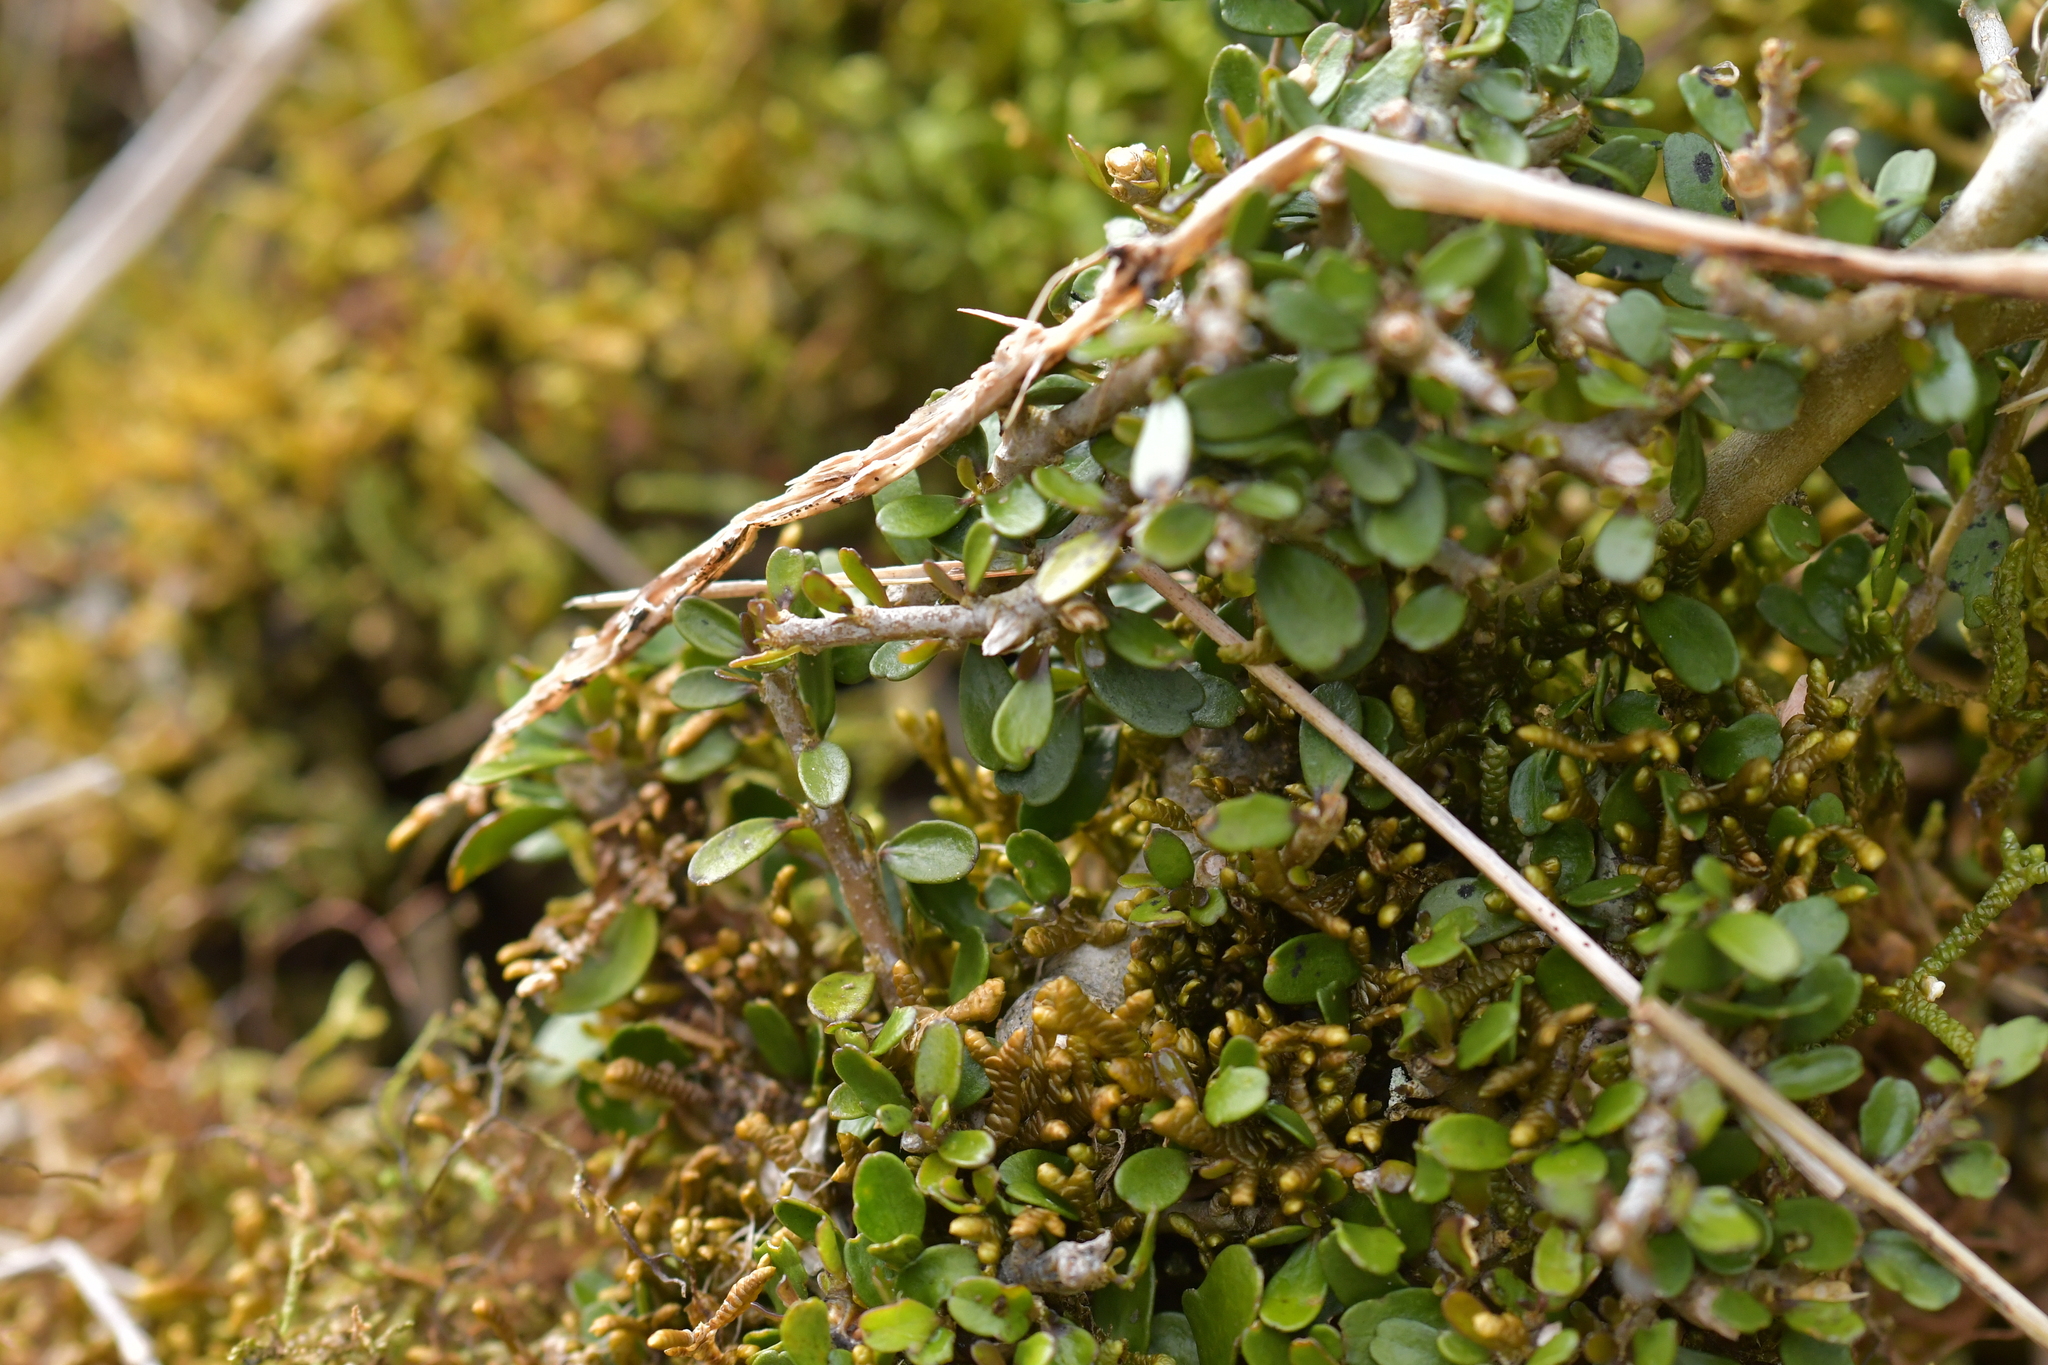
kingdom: Plantae
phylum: Tracheophyta
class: Magnoliopsida
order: Malpighiales
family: Violaceae
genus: Melicytus
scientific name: Melicytus alpinus
